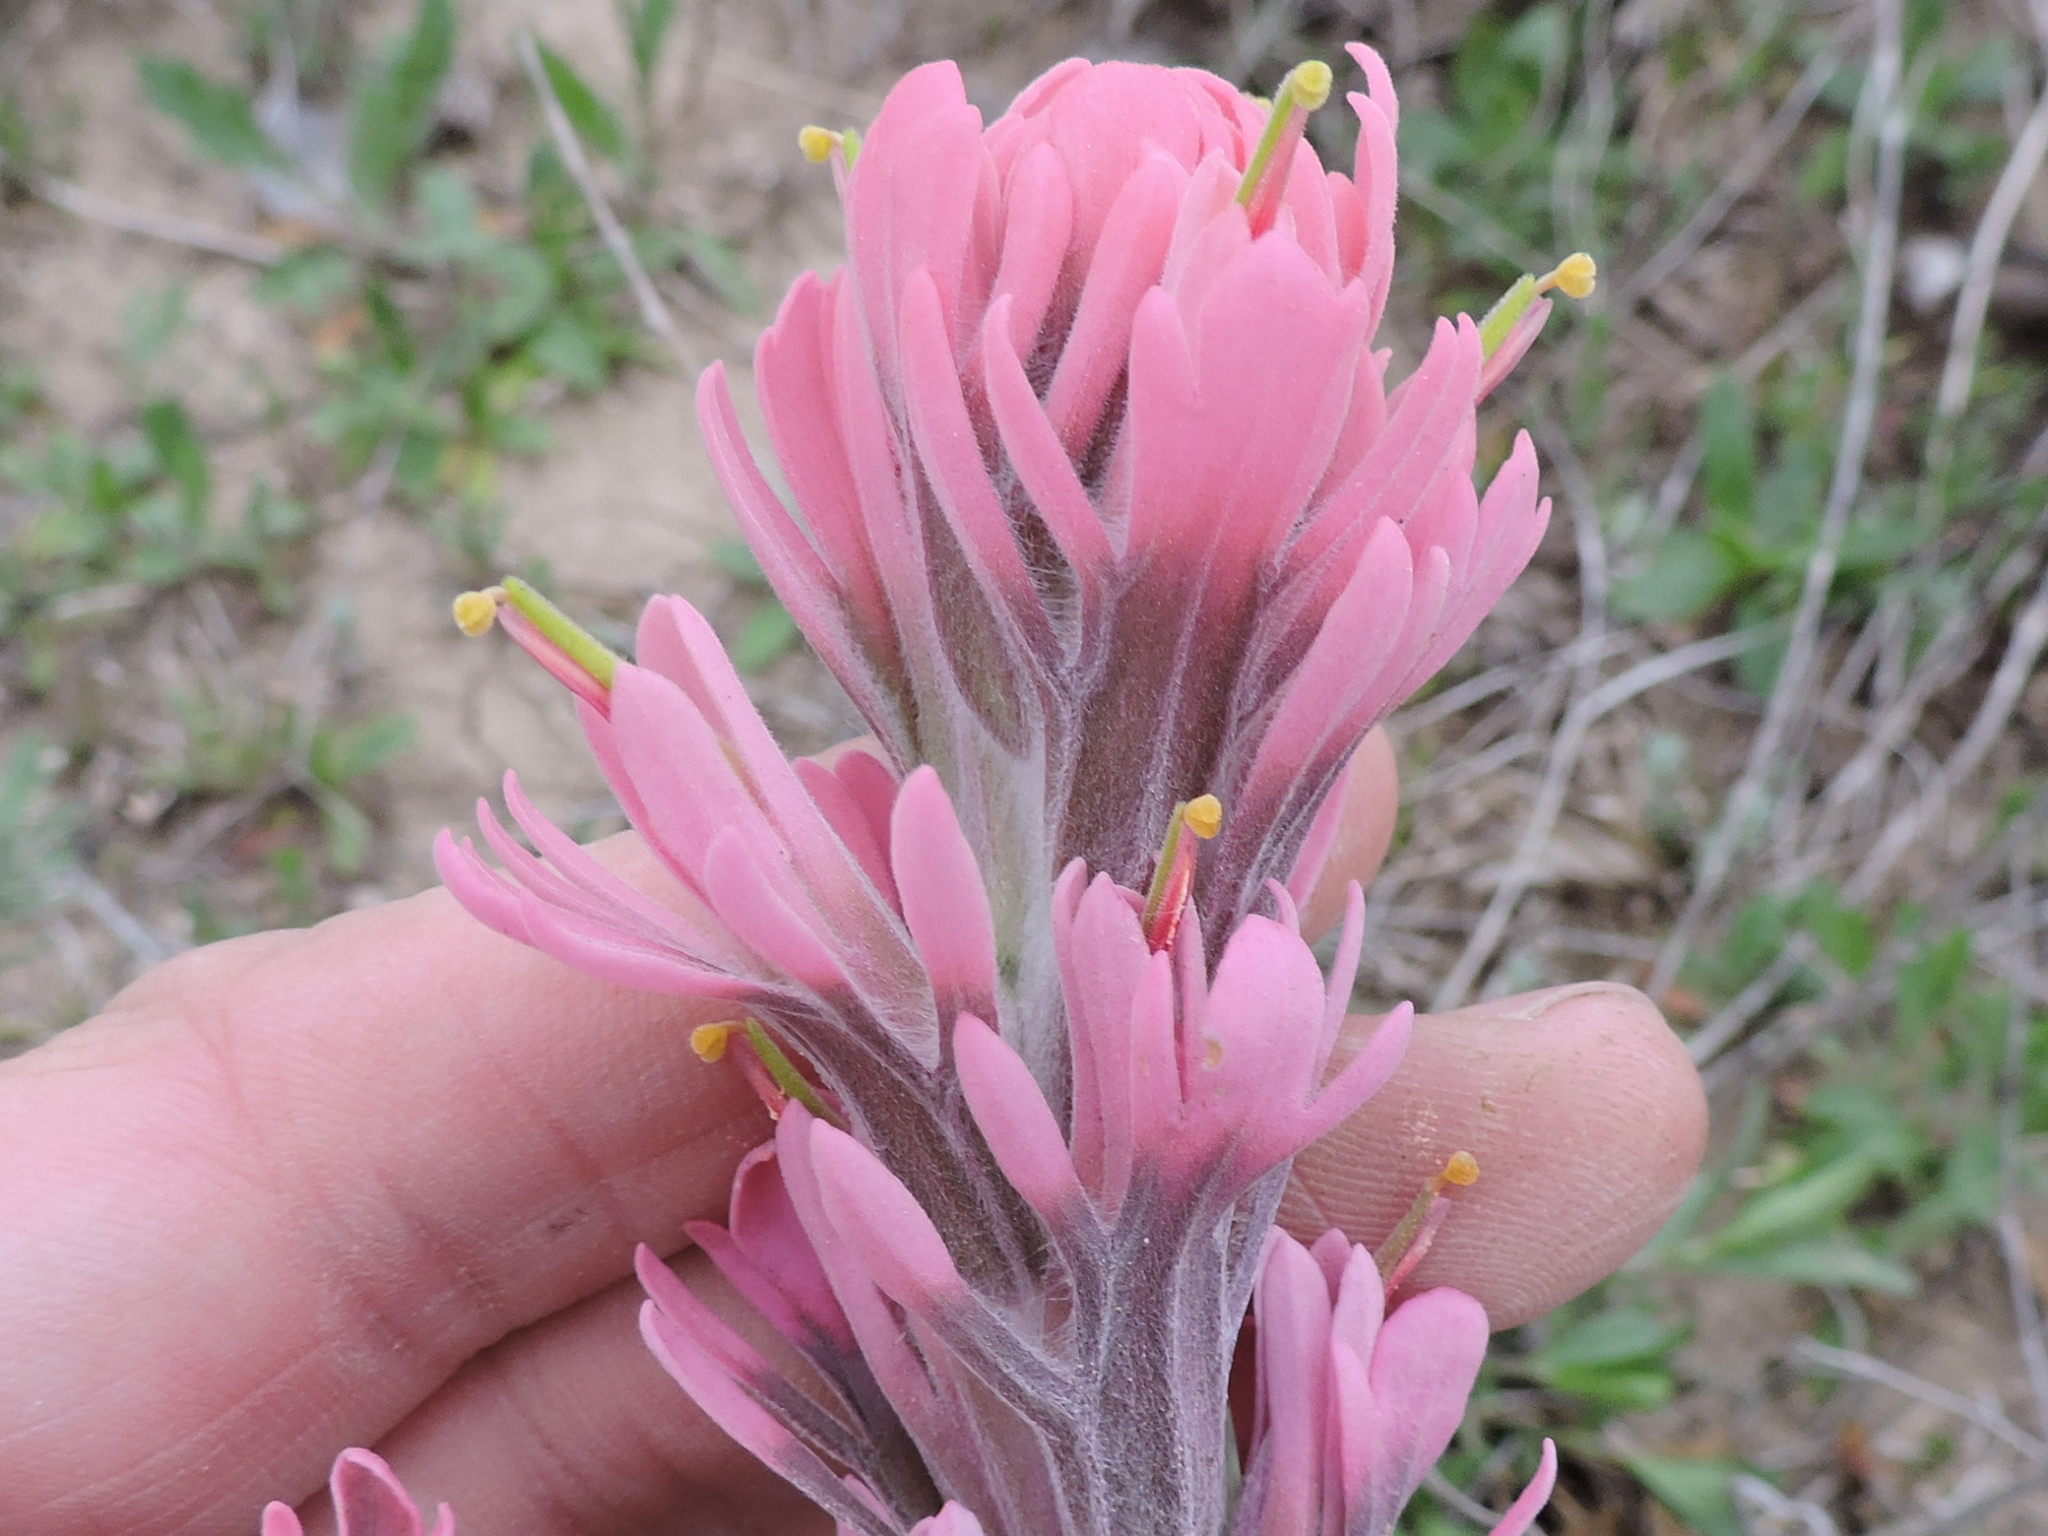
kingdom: Plantae
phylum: Tracheophyta
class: Magnoliopsida
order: Lamiales
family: Orobanchaceae
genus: Castilleja
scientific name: Castilleja purpurea
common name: Plains paintbrush
